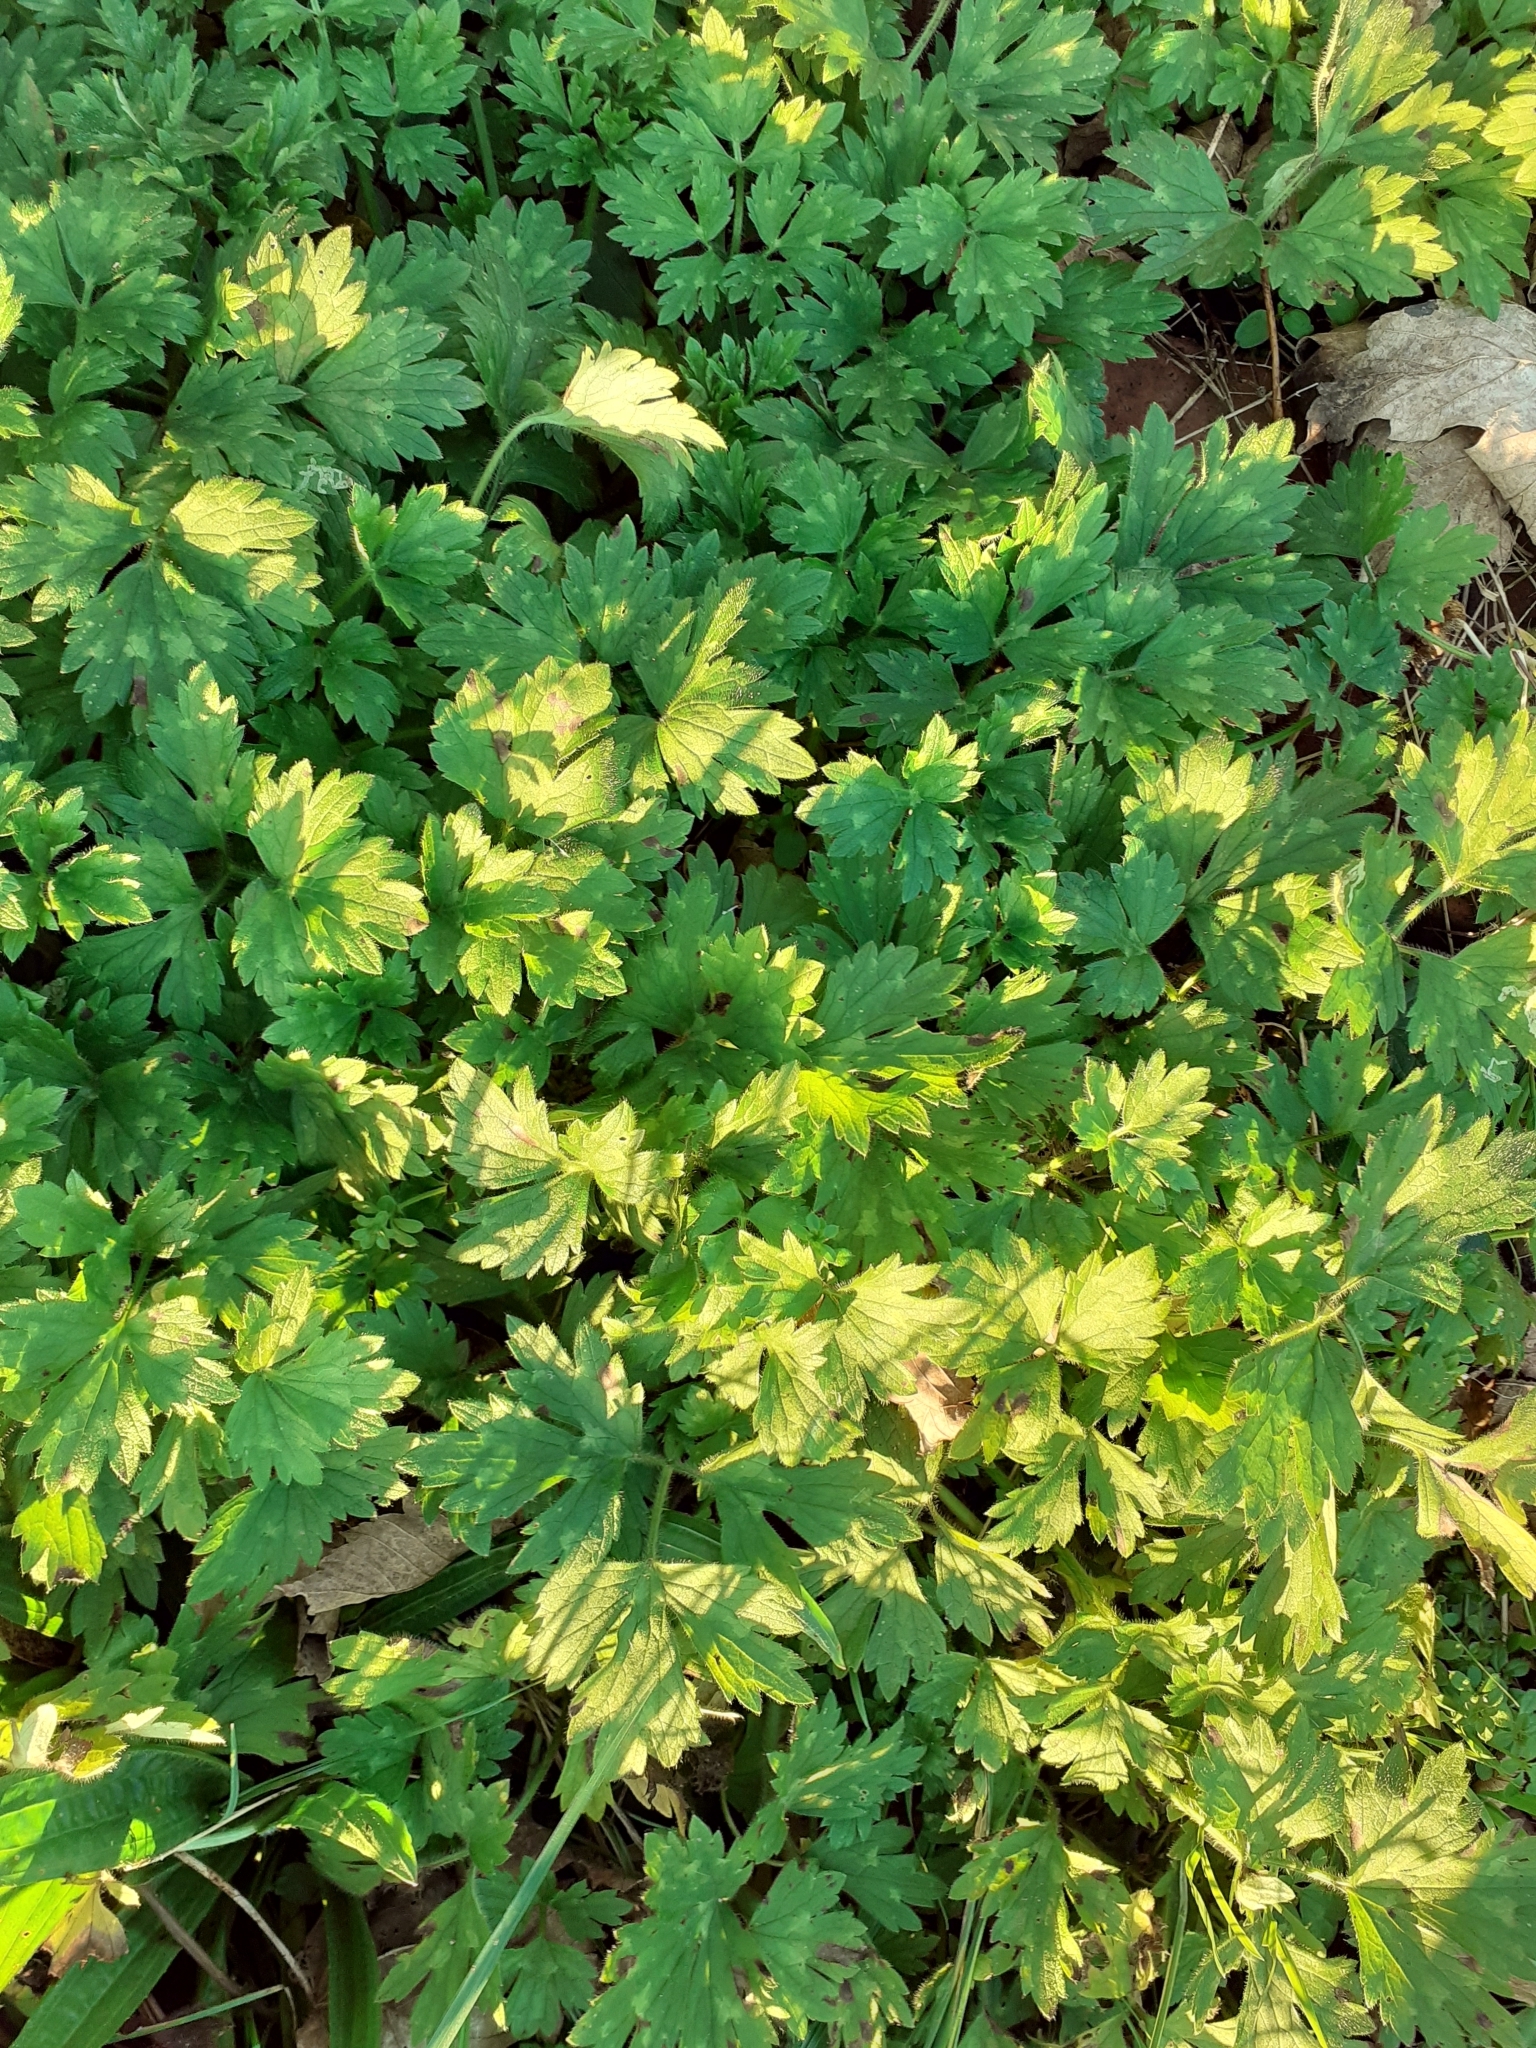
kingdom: Plantae
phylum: Tracheophyta
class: Magnoliopsida
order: Ranunculales
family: Ranunculaceae
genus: Ranunculus
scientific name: Ranunculus repens
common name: Creeping buttercup
